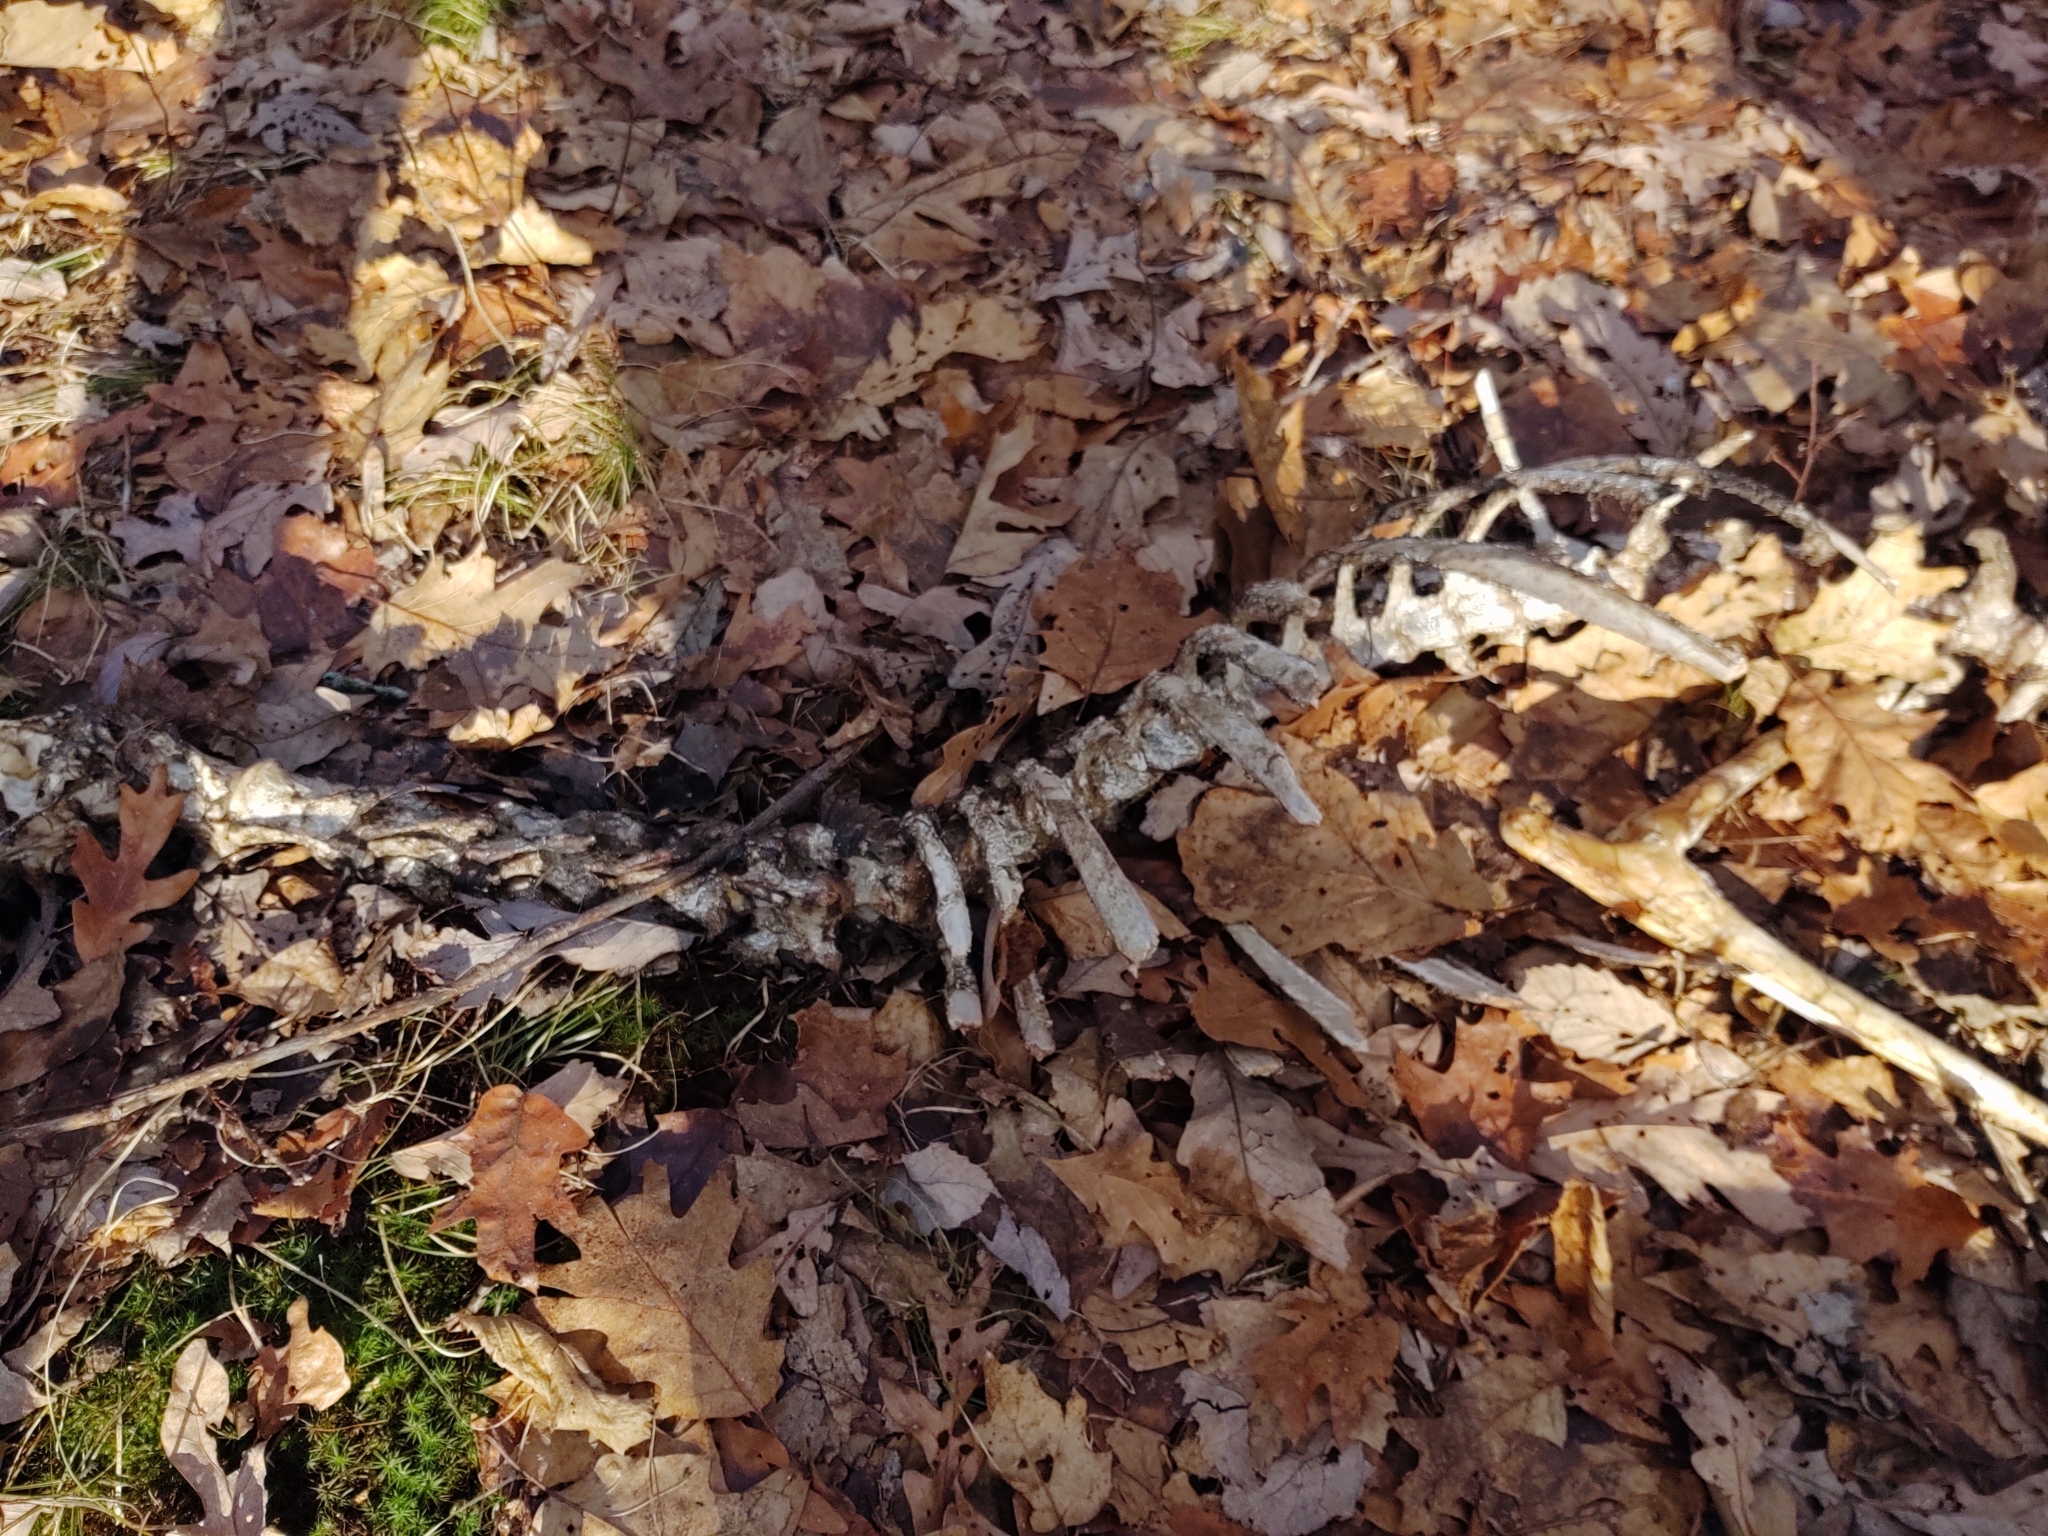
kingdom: Animalia
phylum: Chordata
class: Mammalia
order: Artiodactyla
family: Cervidae
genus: Odocoileus
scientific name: Odocoileus virginianus
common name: White-tailed deer
